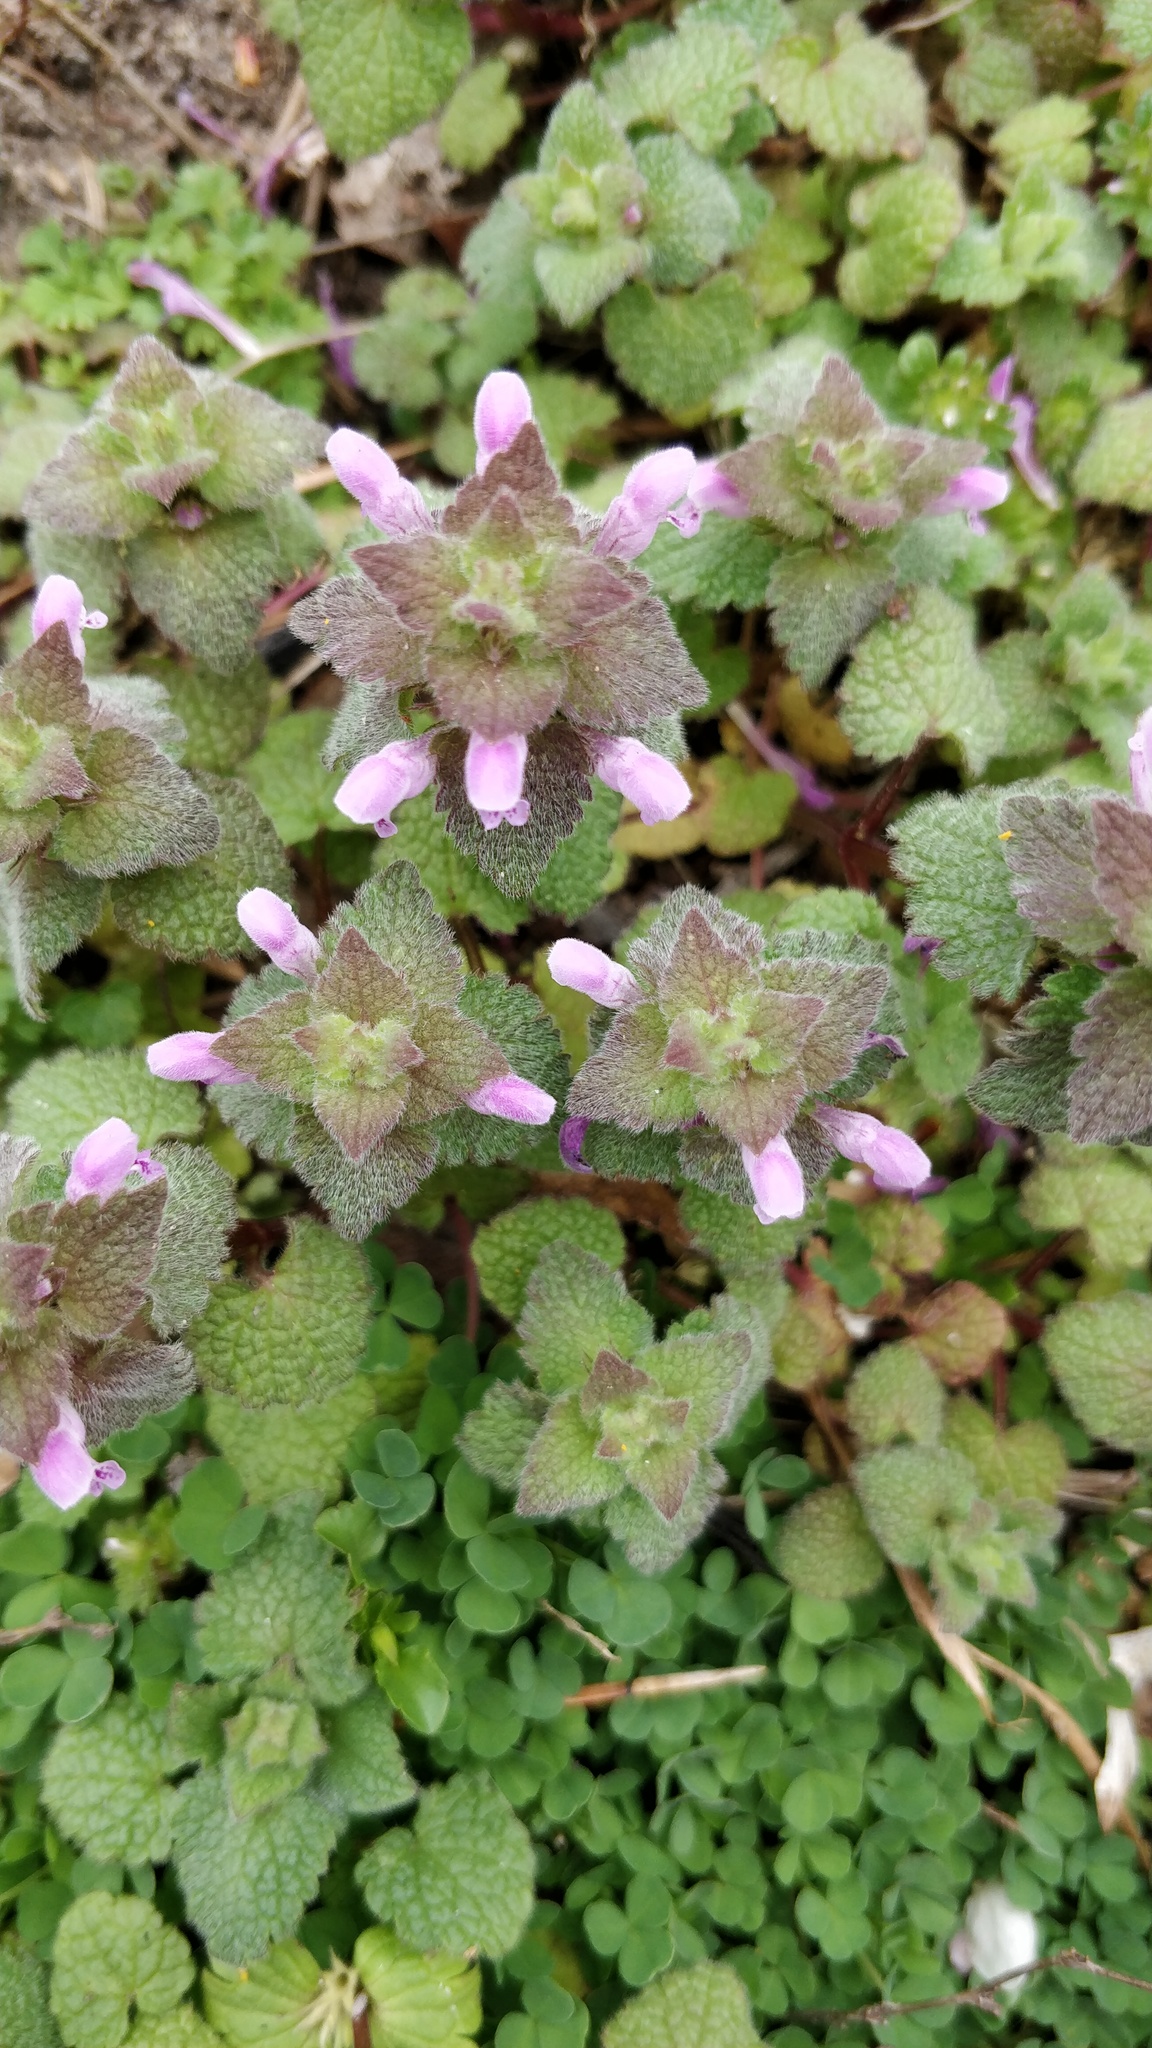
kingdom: Plantae
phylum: Tracheophyta
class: Magnoliopsida
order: Lamiales
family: Lamiaceae
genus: Lamium
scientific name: Lamium purpureum
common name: Red dead-nettle
